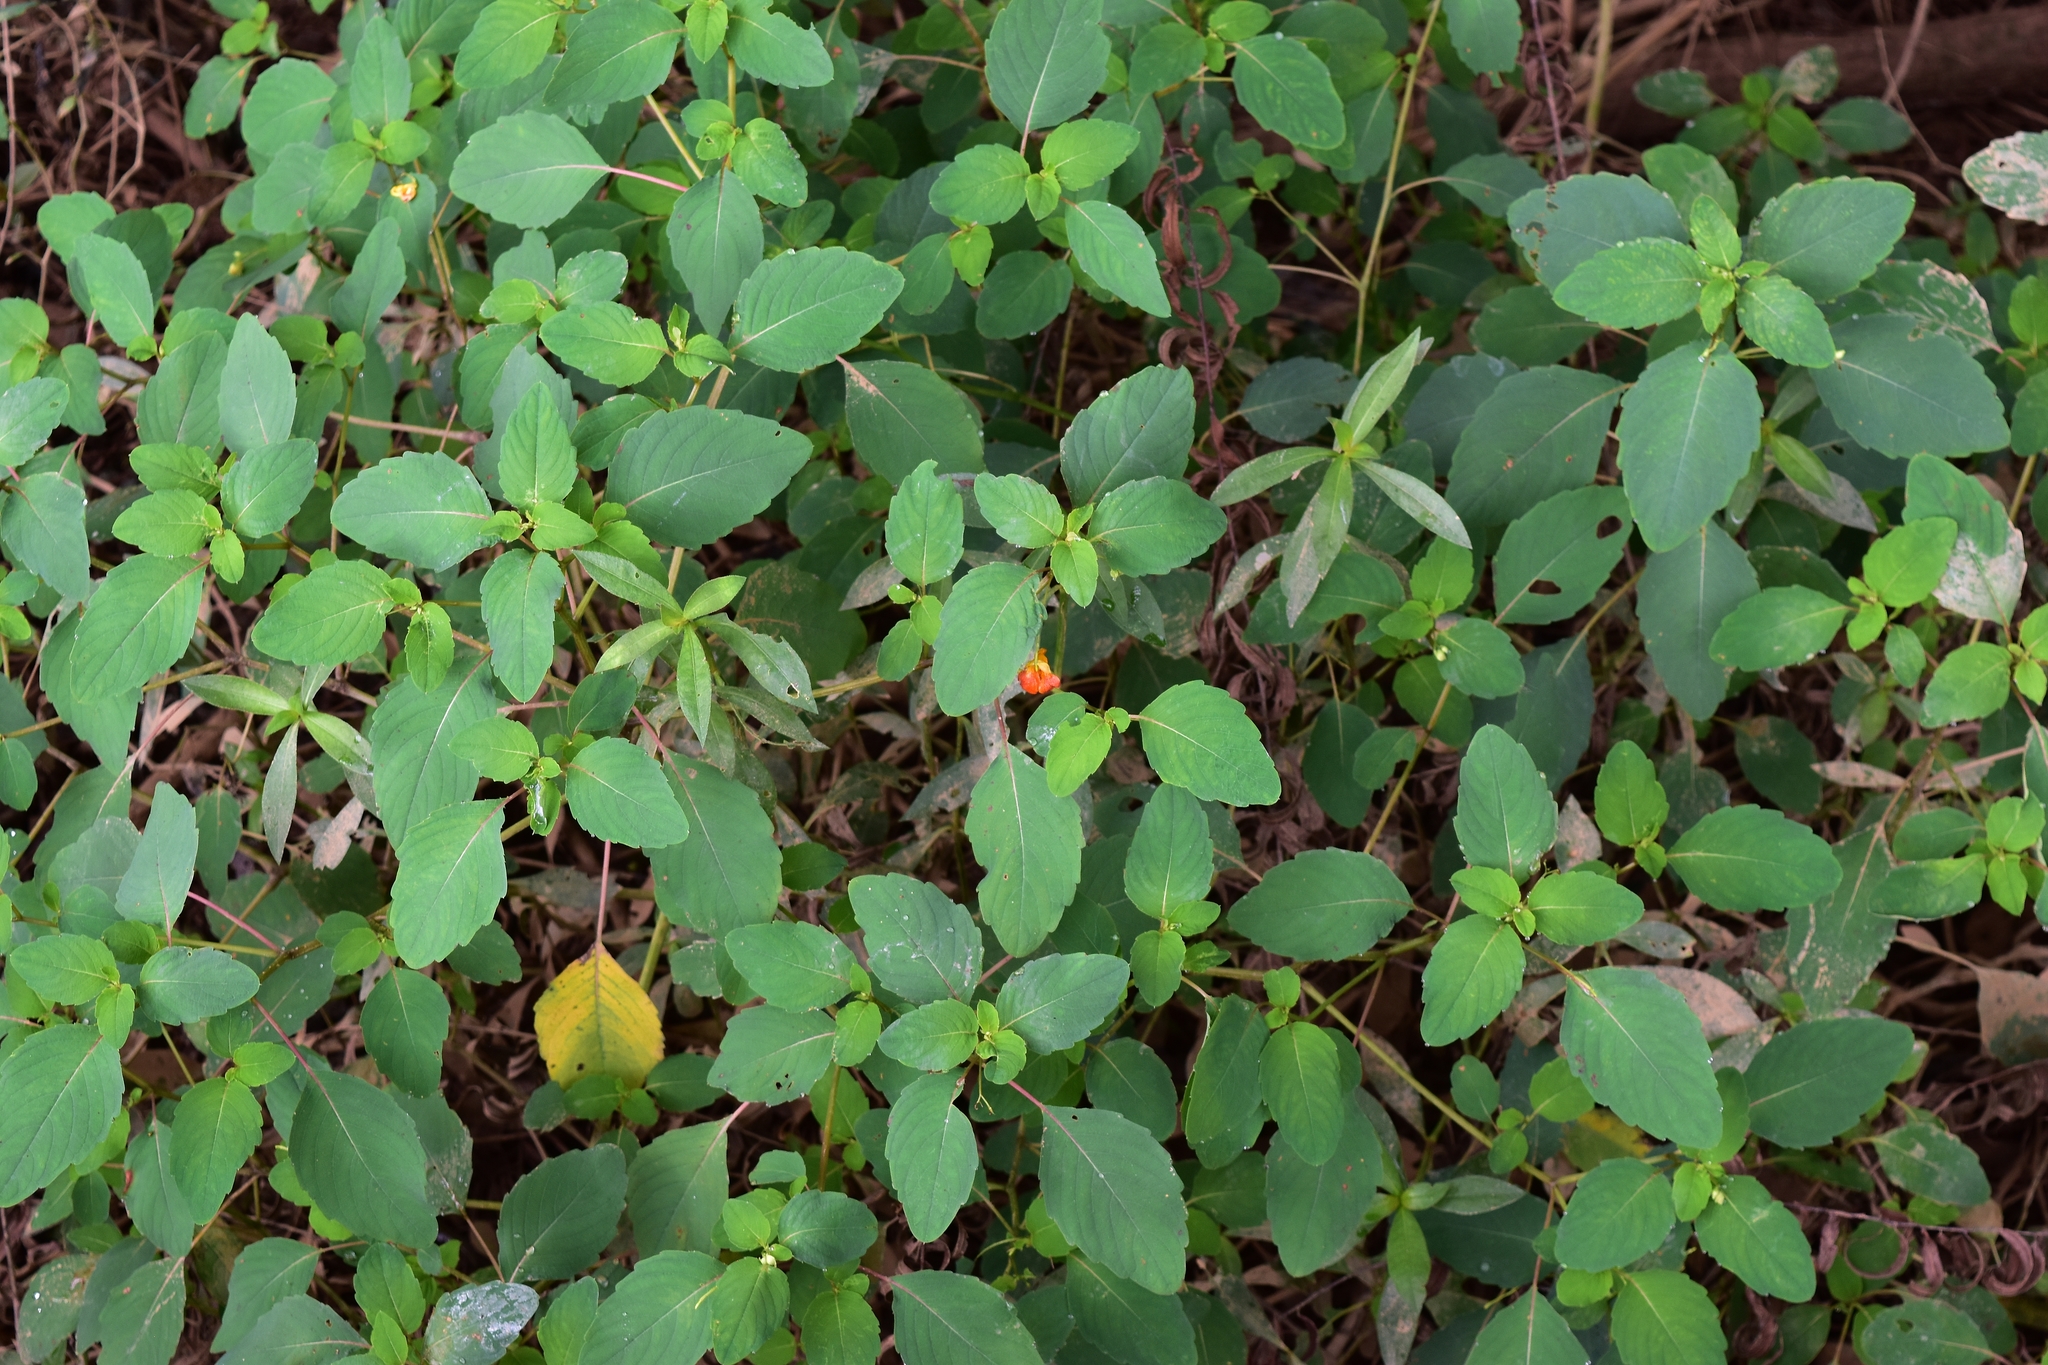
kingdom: Plantae
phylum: Tracheophyta
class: Magnoliopsida
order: Ericales
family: Balsaminaceae
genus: Impatiens
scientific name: Impatiens capensis
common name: Orange balsam
